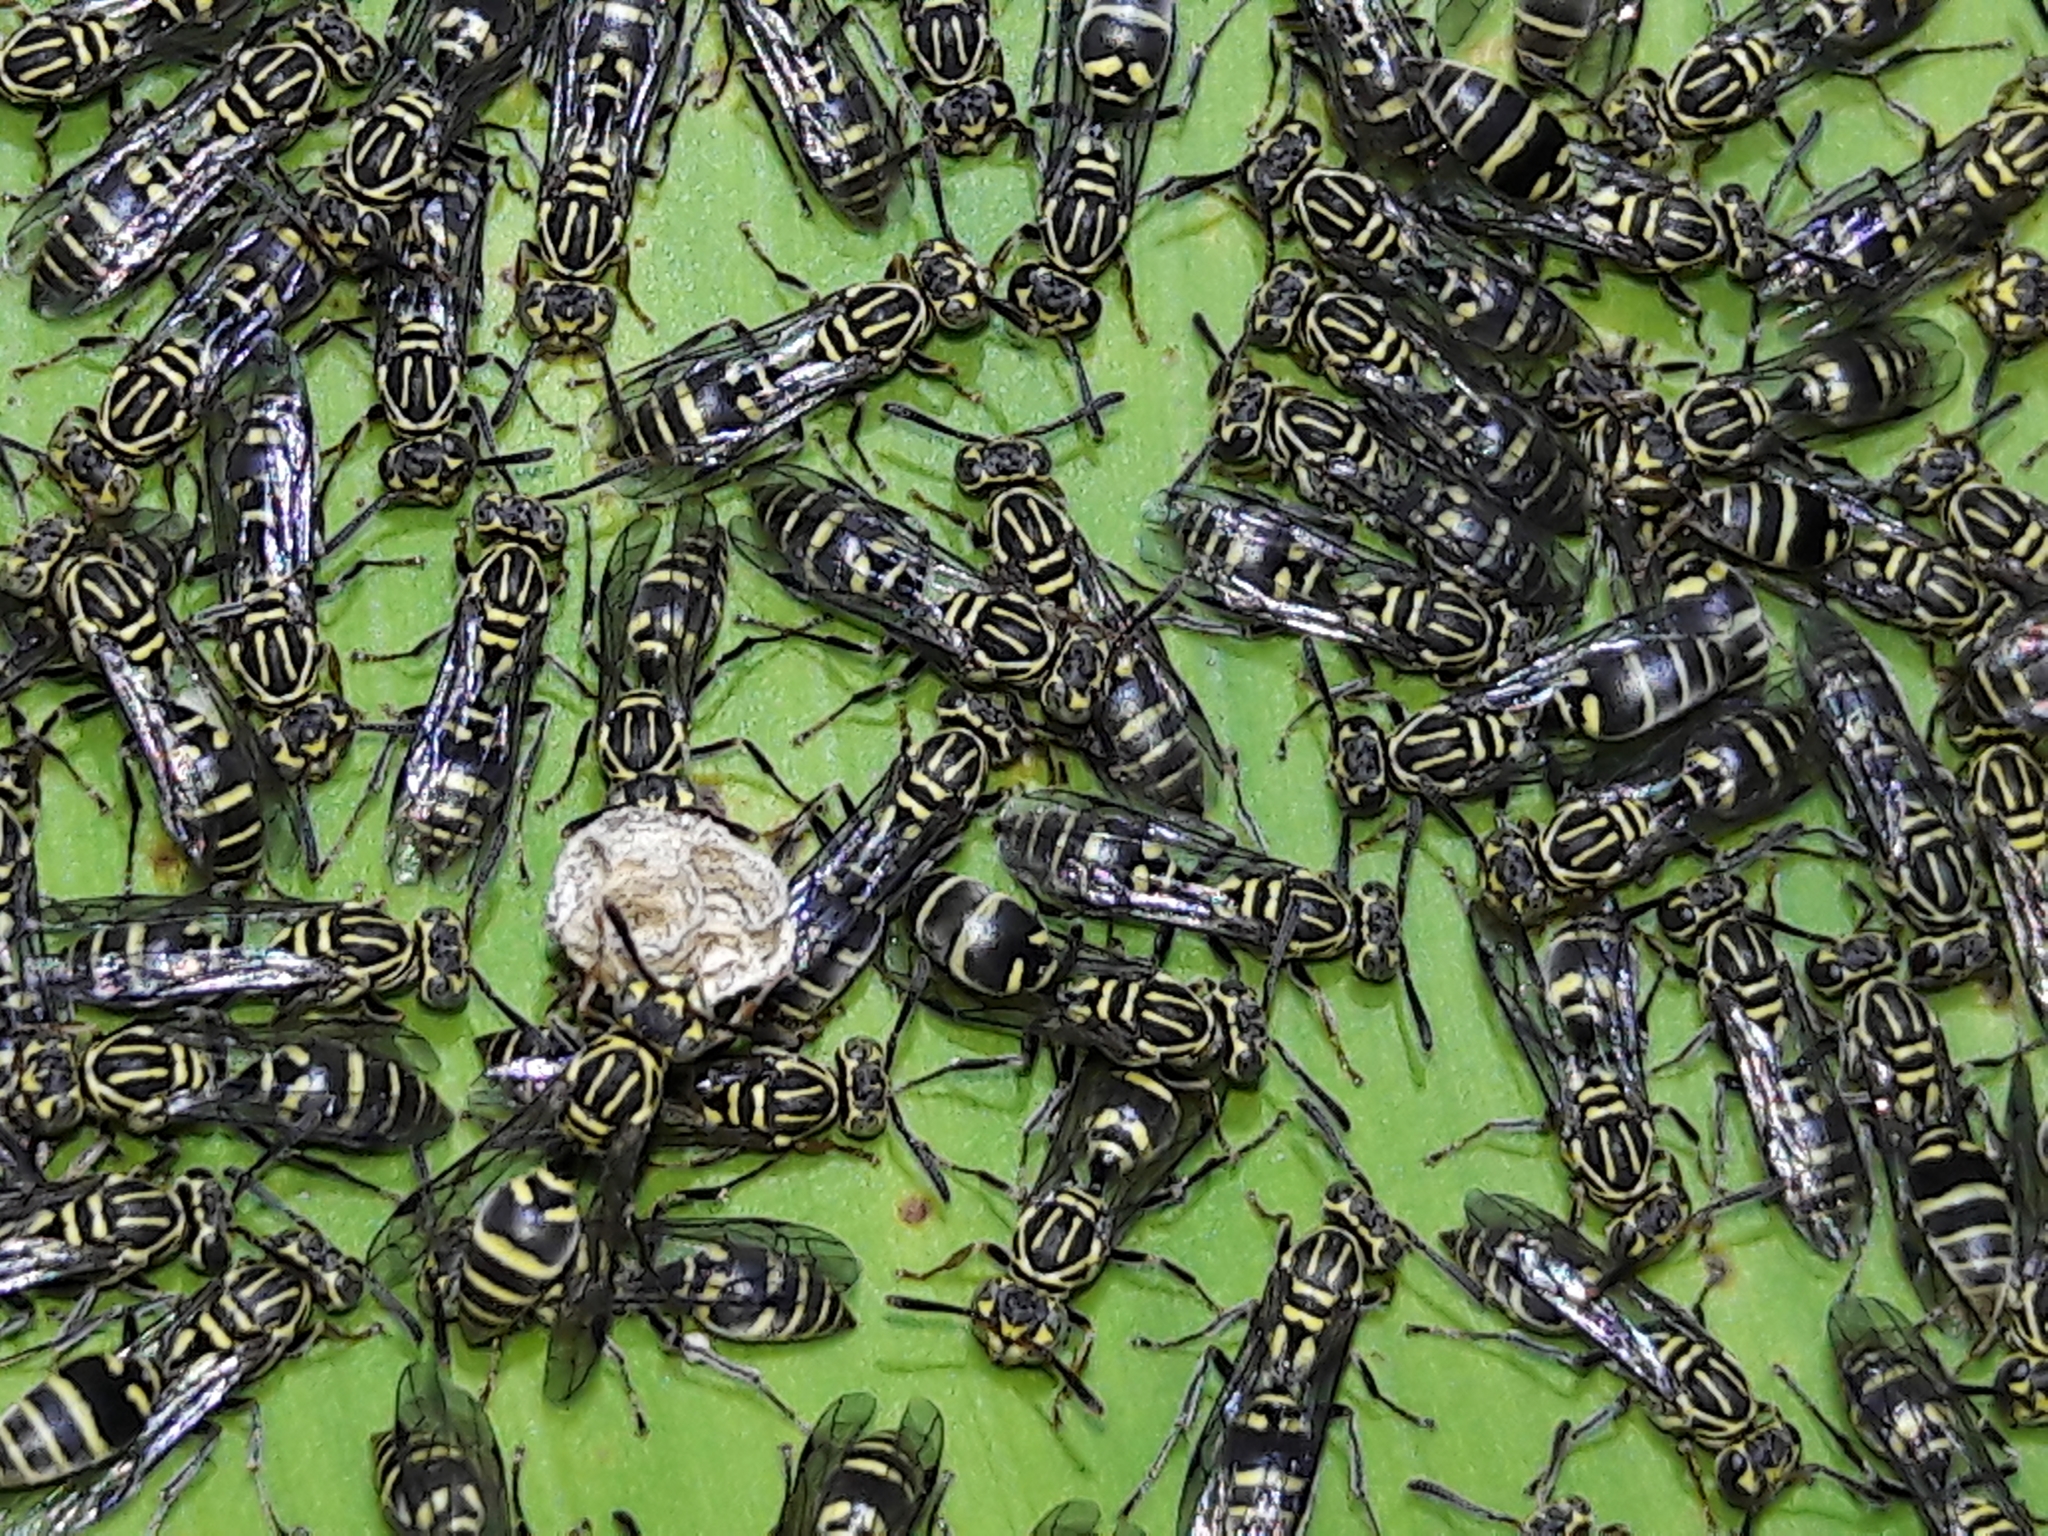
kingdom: Animalia
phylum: Arthropoda
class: Insecta
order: Hymenoptera
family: Vespidae
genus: Protopolybia
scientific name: Protopolybia exigua
